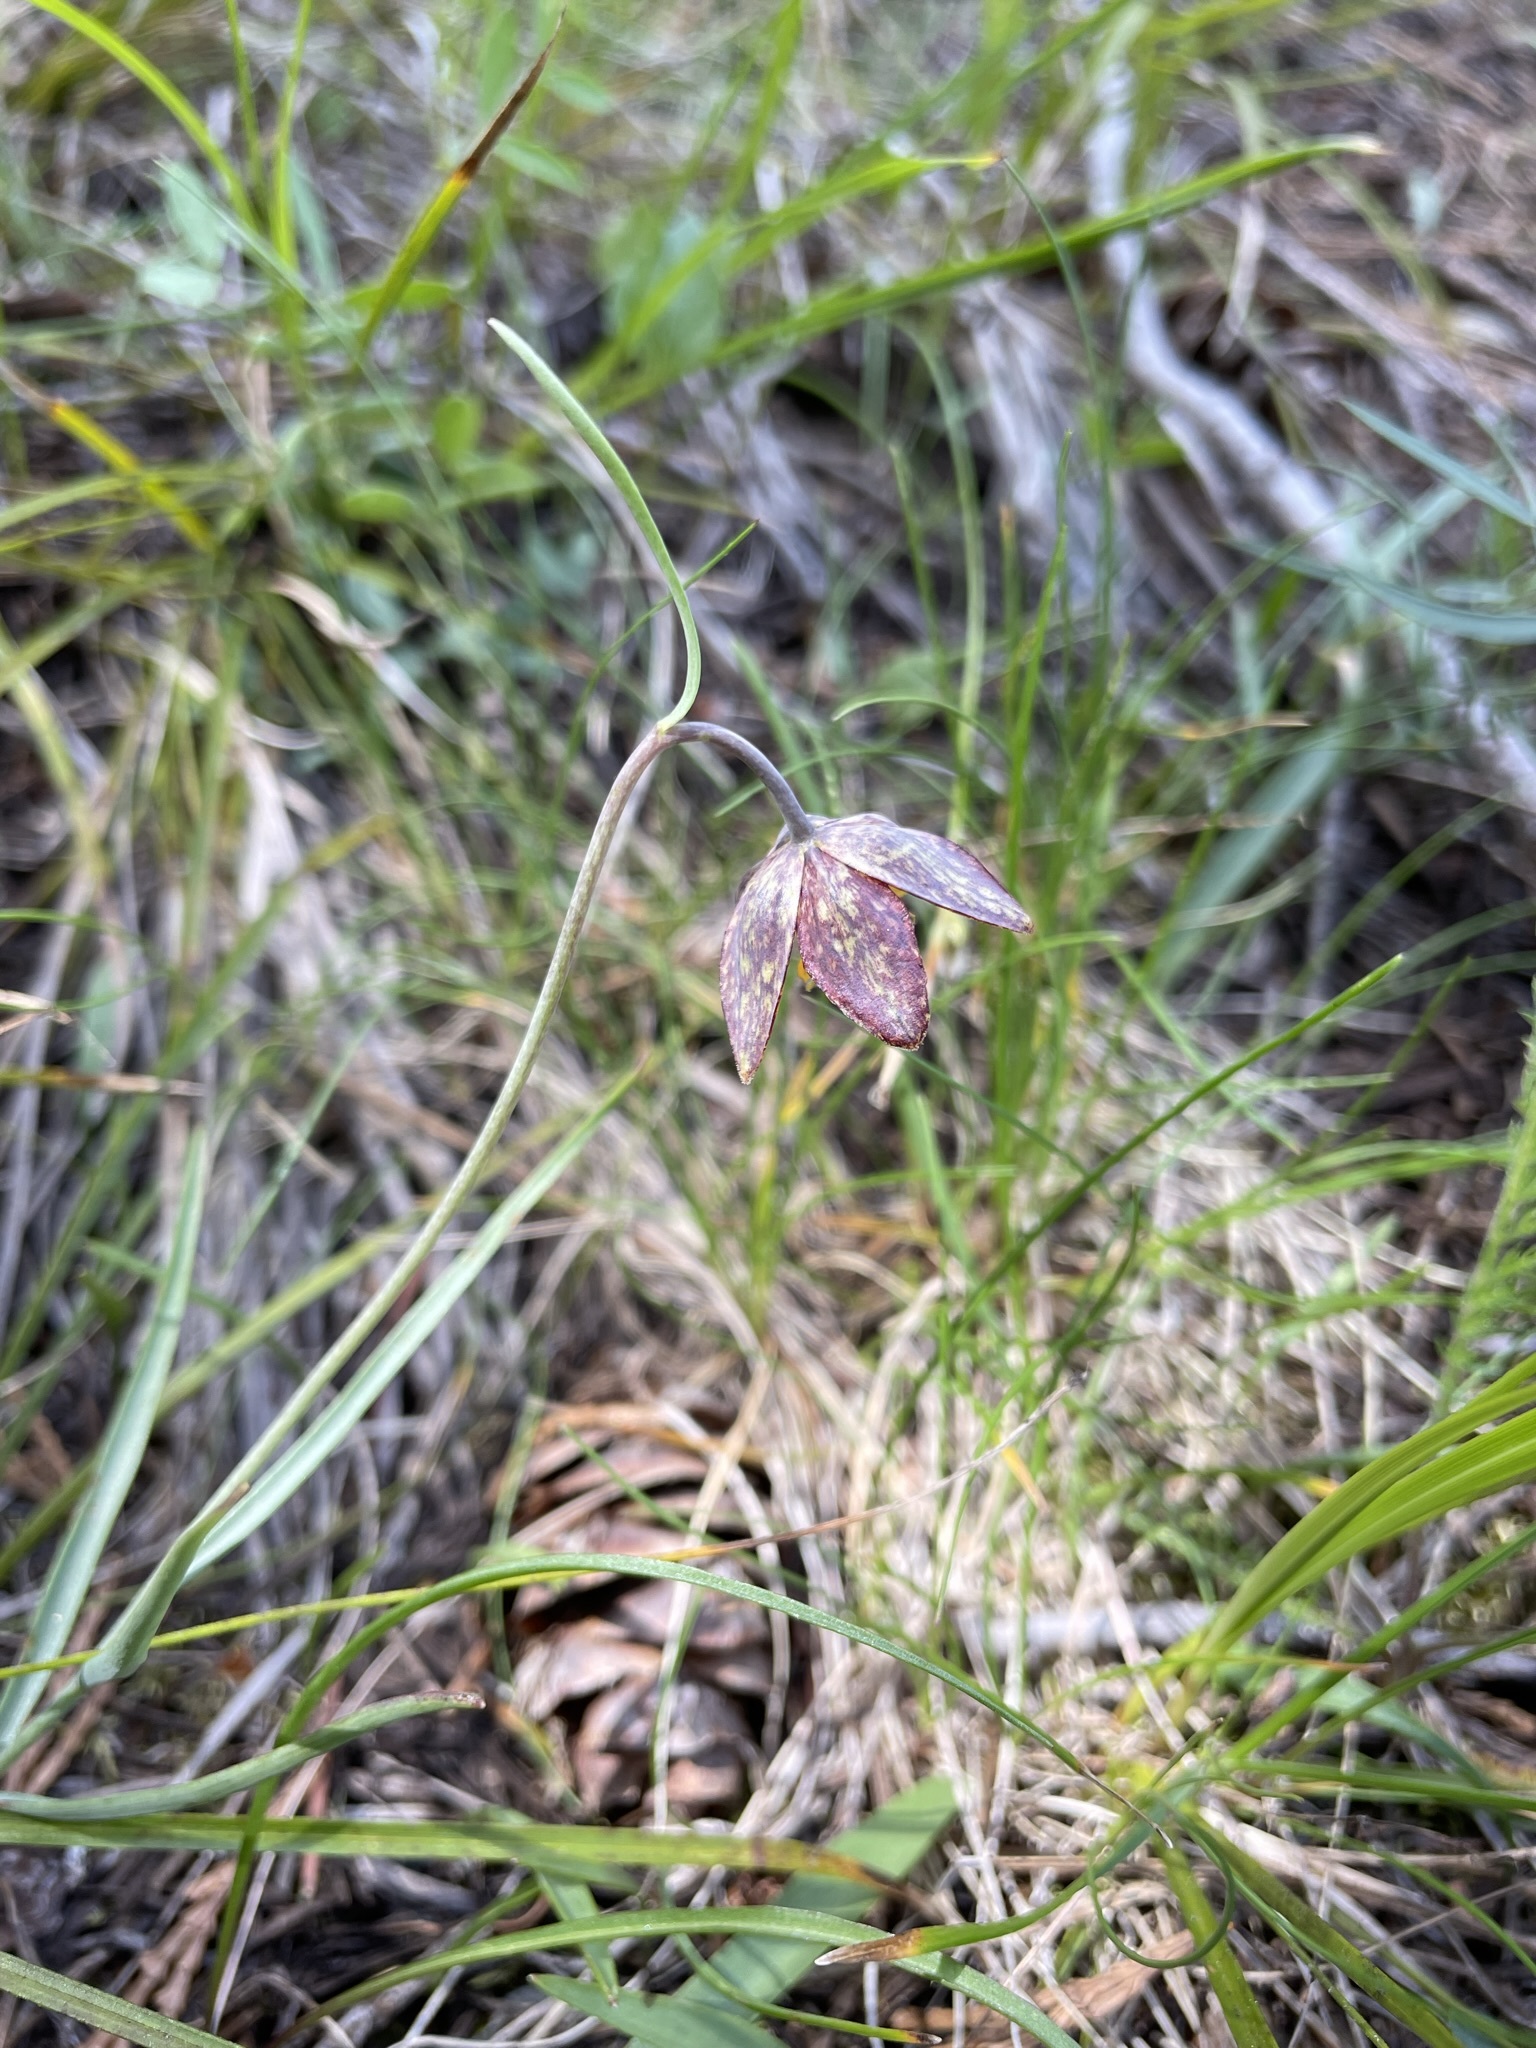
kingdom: Plantae
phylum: Tracheophyta
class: Liliopsida
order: Liliales
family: Liliaceae
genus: Fritillaria
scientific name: Fritillaria atropurpurea
